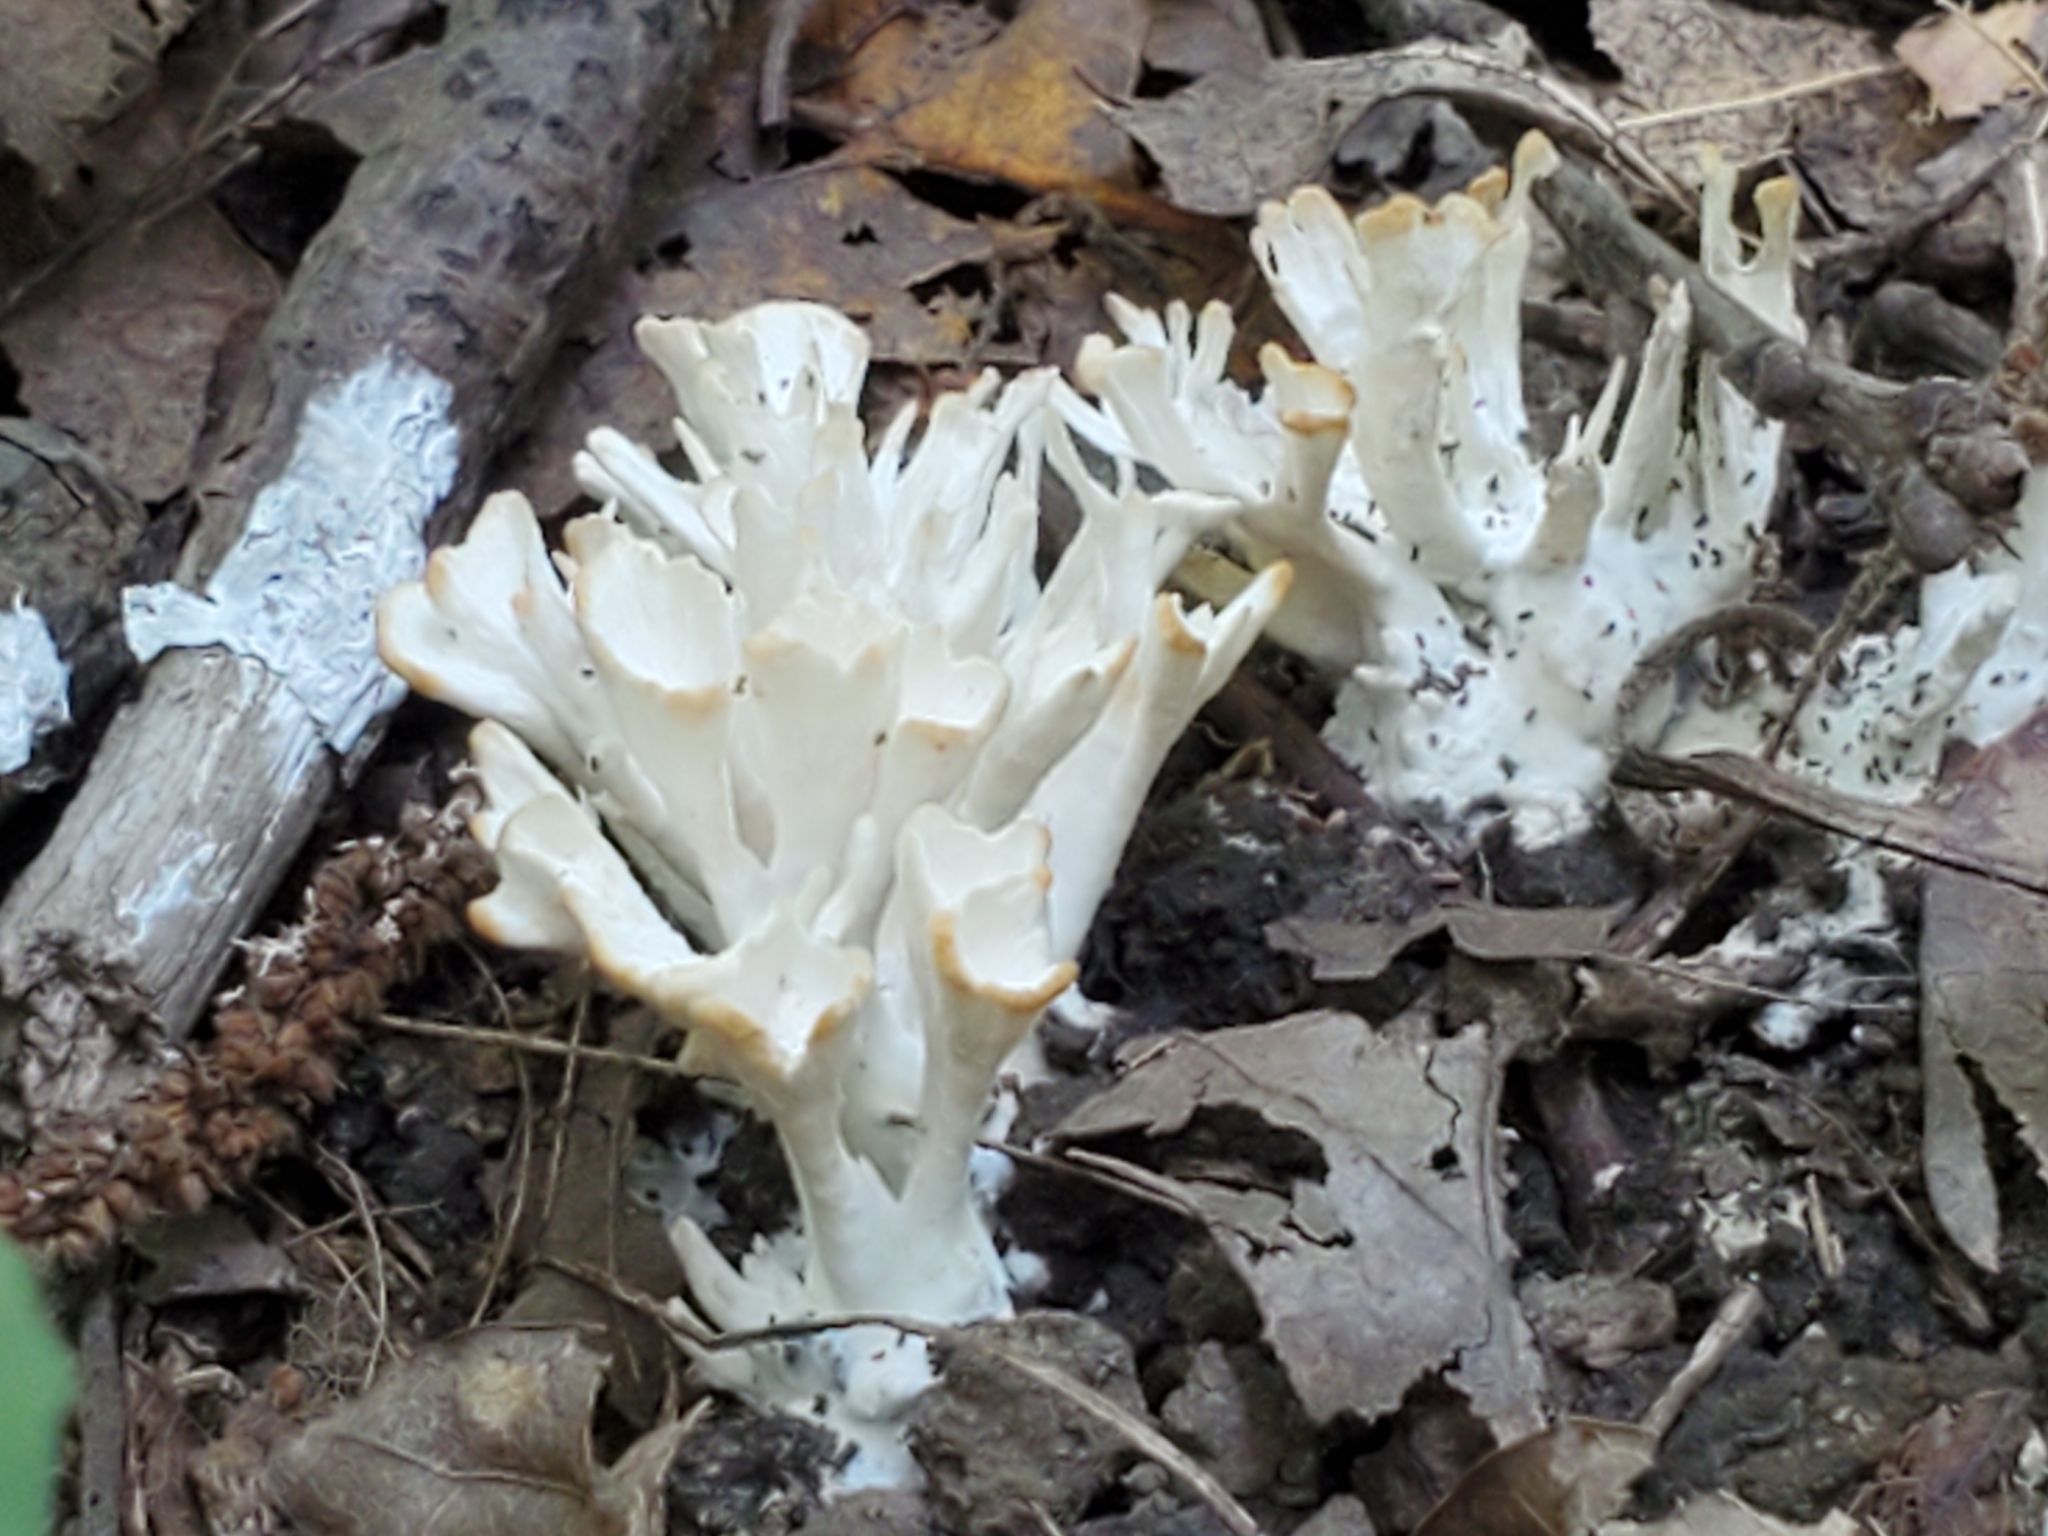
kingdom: Fungi
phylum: Basidiomycota
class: Agaricomycetes
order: Sebacinales
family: Sebacinaceae
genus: Sebacina
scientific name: Sebacina schweinitzii
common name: Jellied false coral fungus
